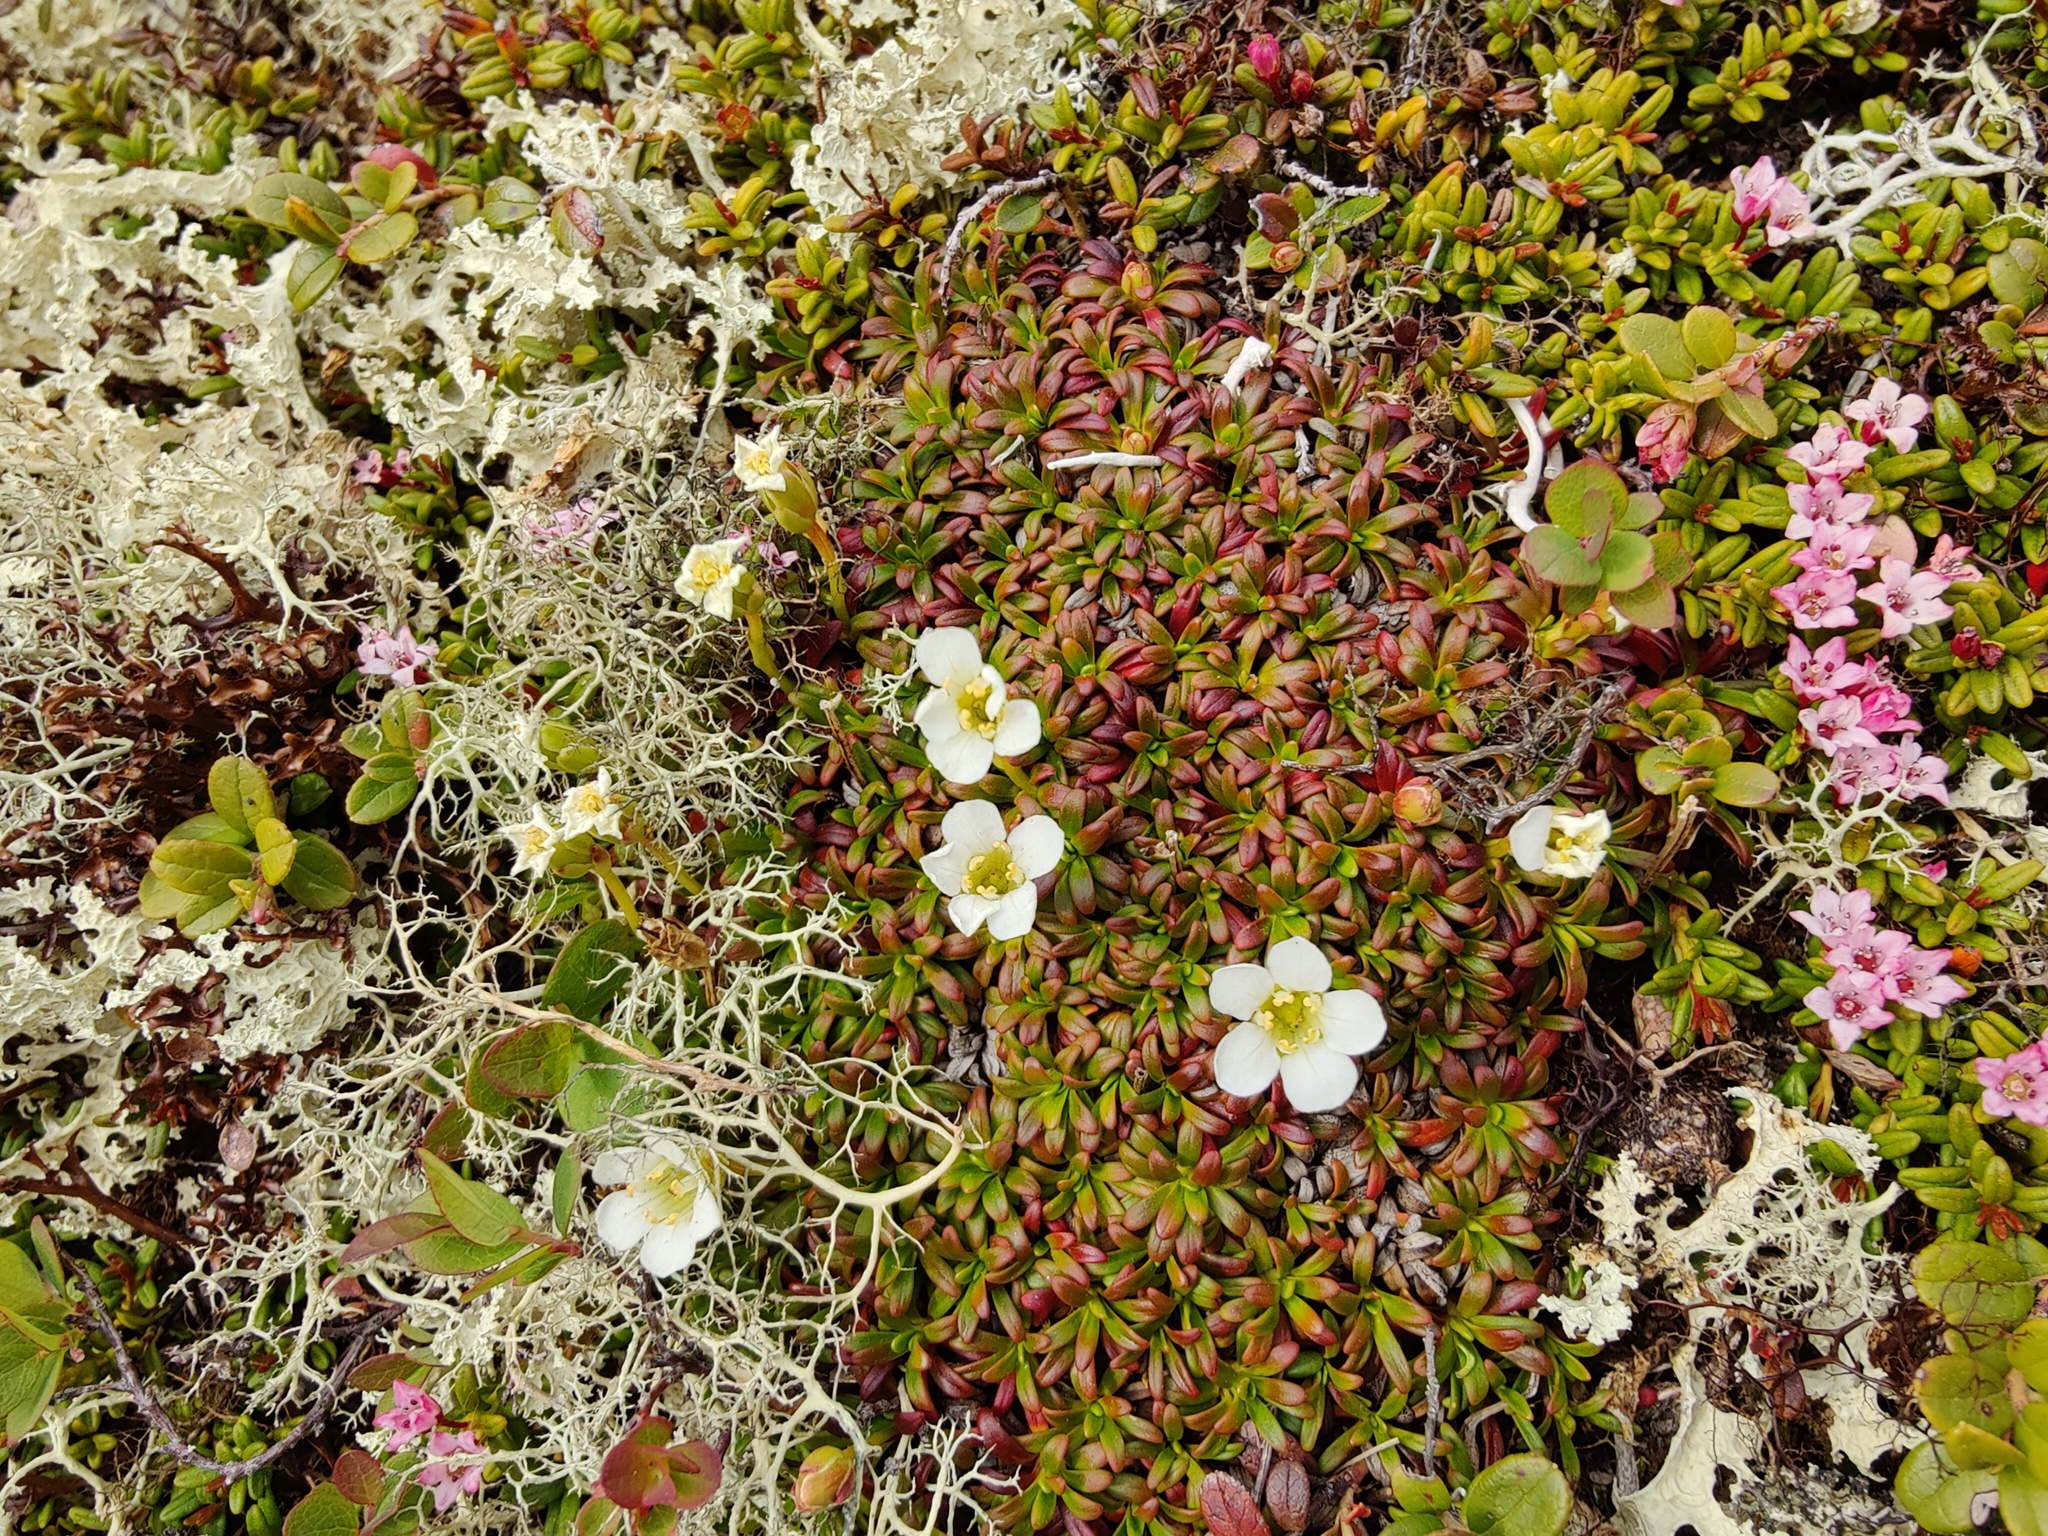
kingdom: Plantae
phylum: Tracheophyta
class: Magnoliopsida
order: Ericales
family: Diapensiaceae
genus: Diapensia
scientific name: Diapensia lapponica
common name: Diapensia
